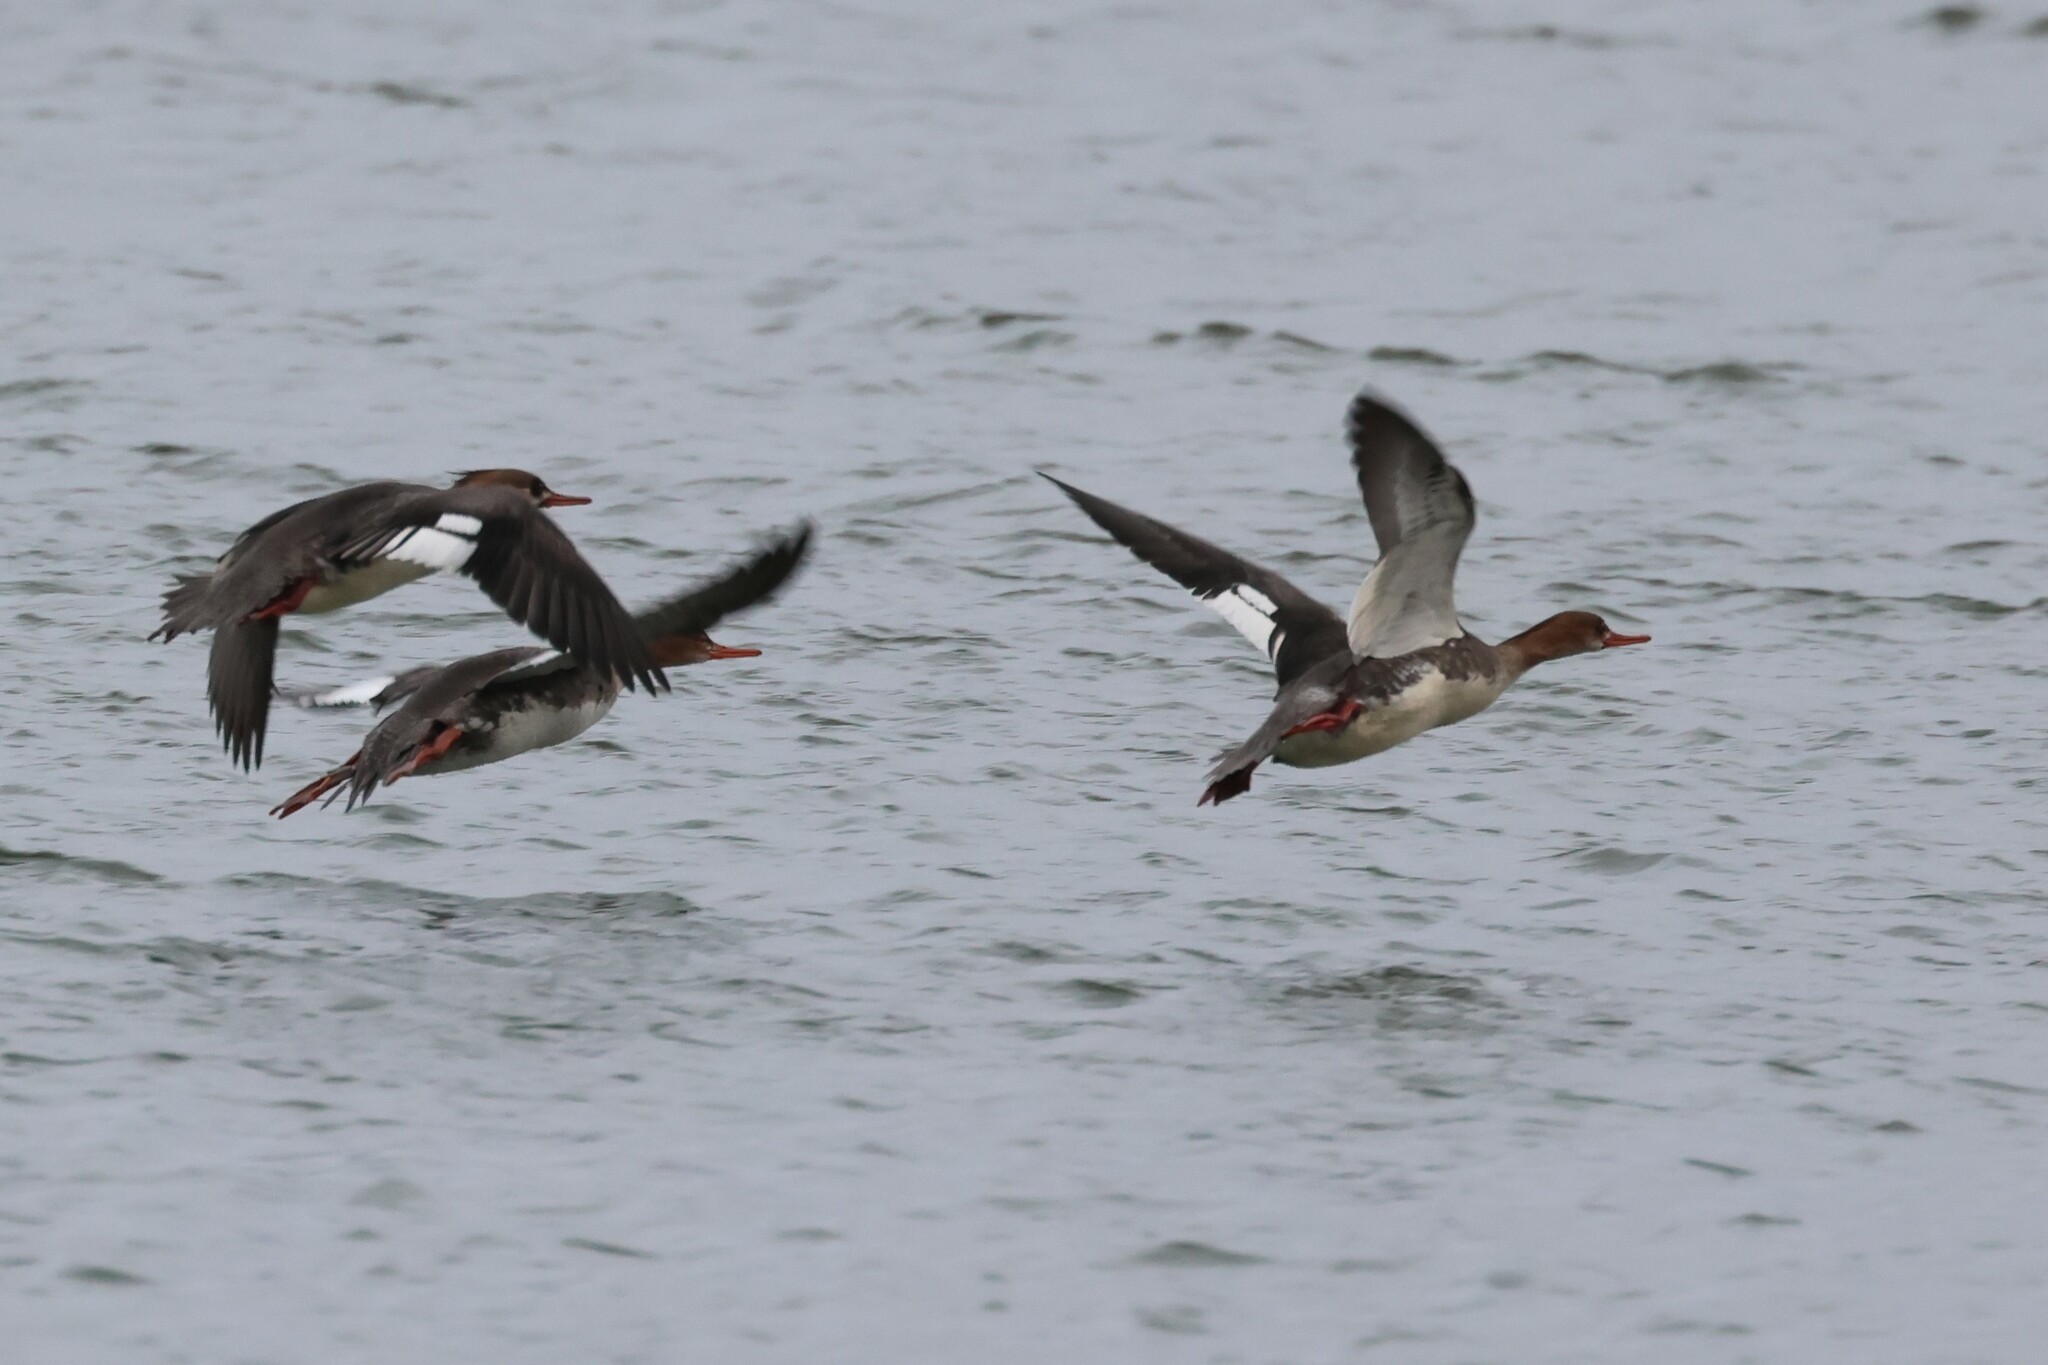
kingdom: Animalia
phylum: Chordata
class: Aves
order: Anseriformes
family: Anatidae
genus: Mergus
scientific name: Mergus serrator
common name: Red-breasted merganser
